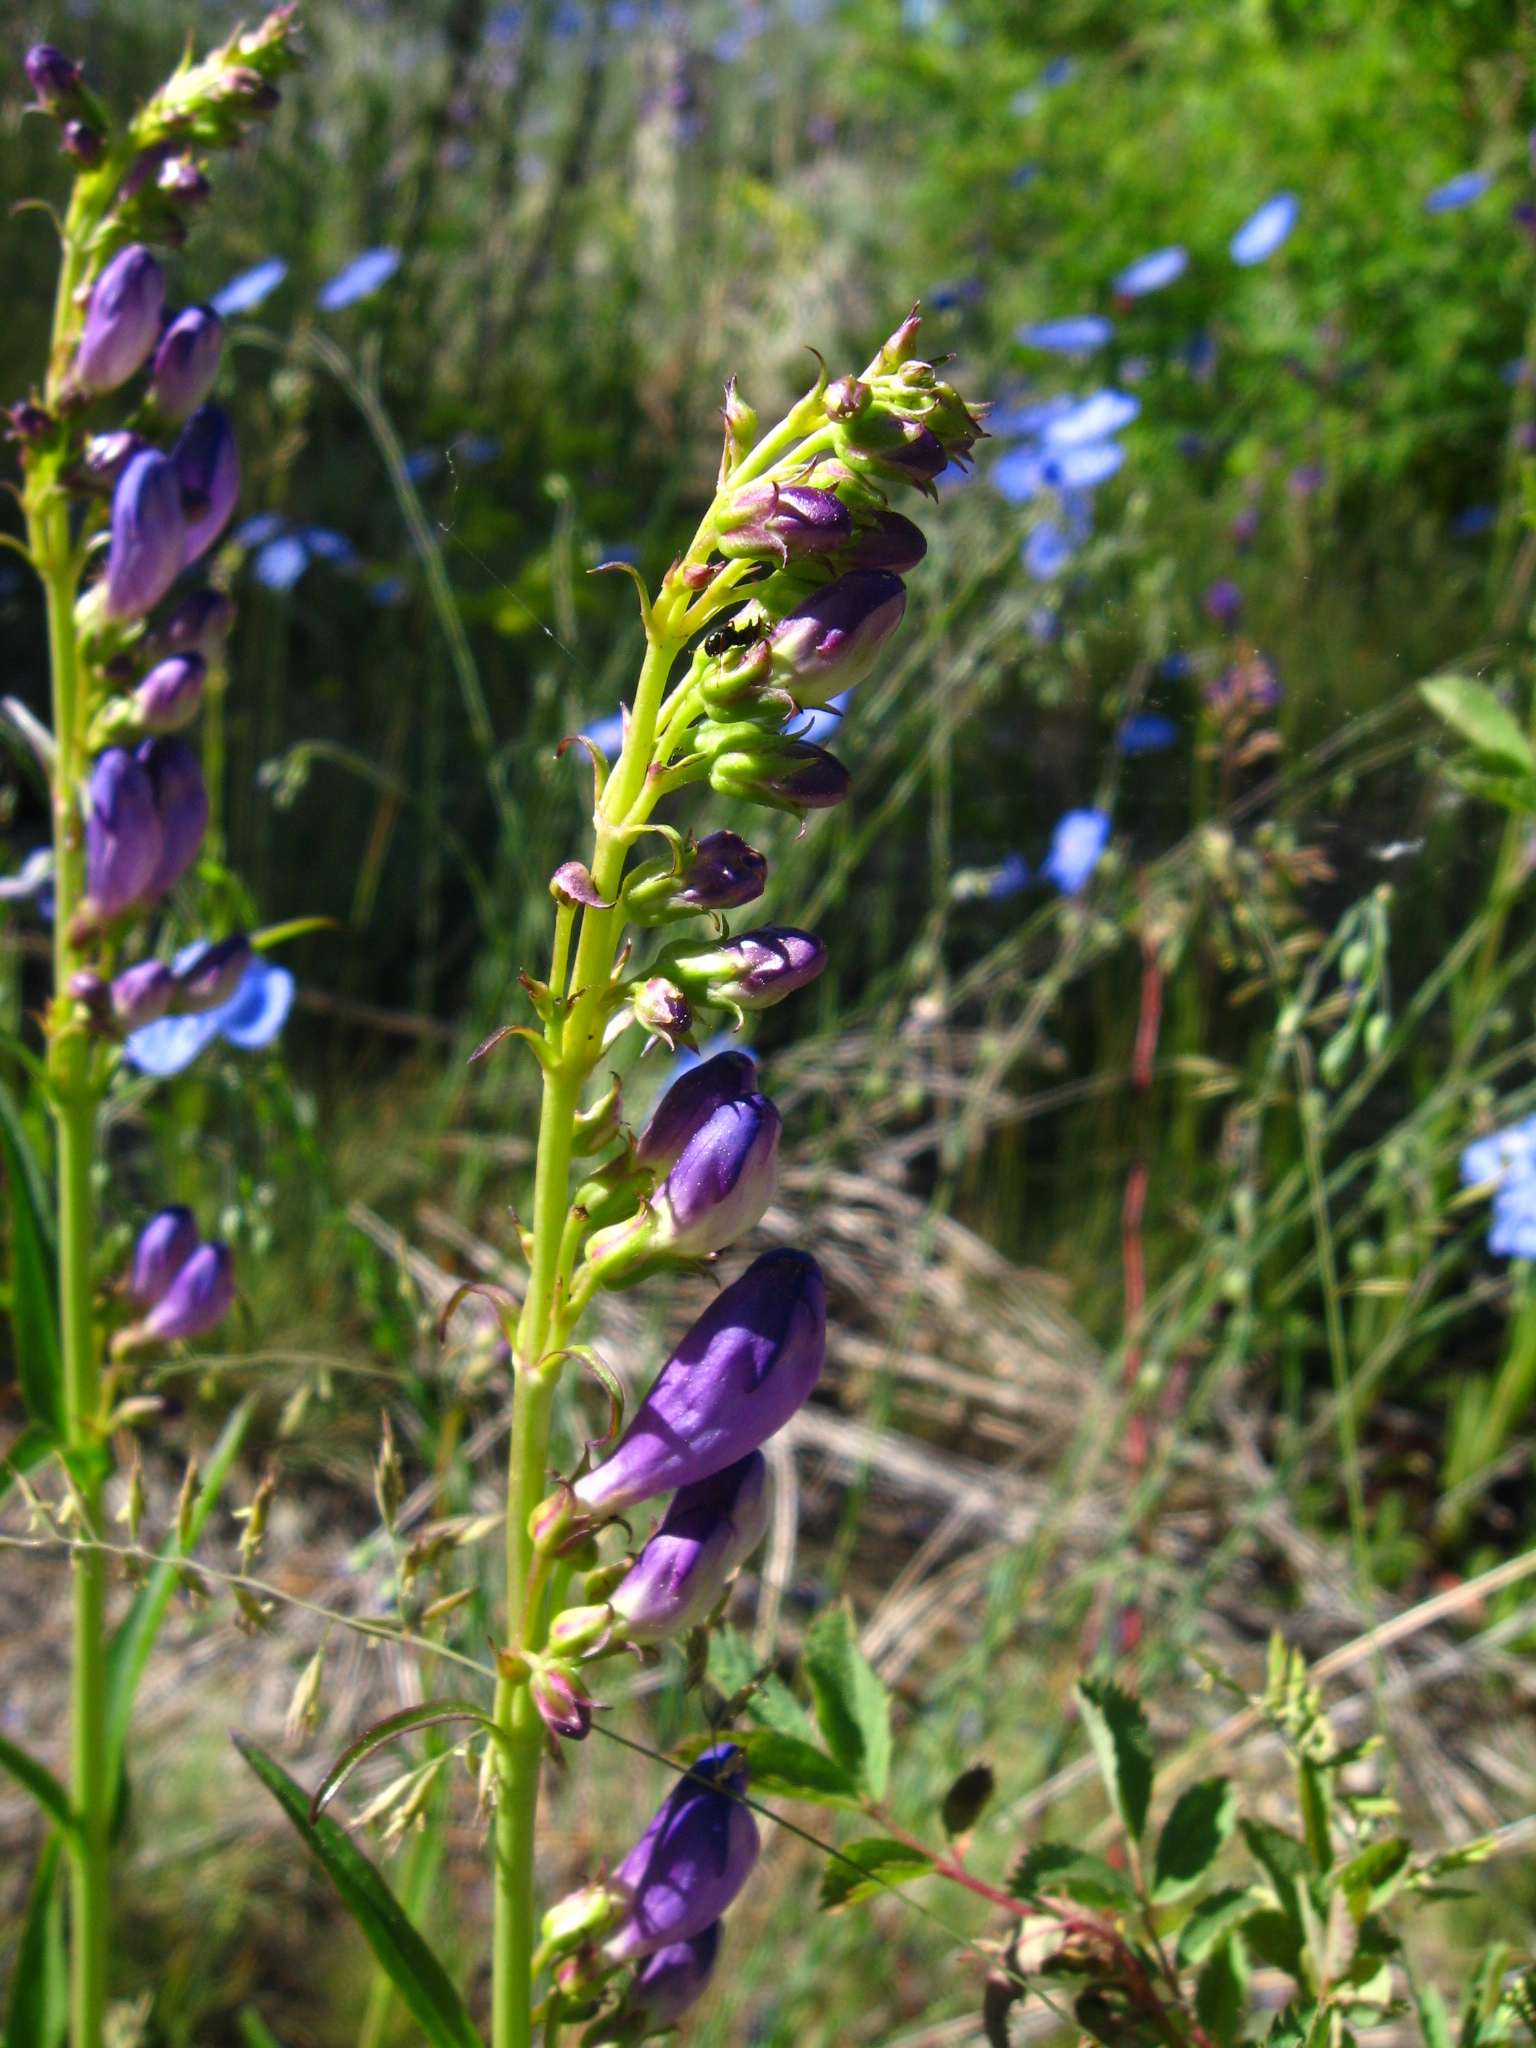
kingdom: Plantae
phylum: Tracheophyta
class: Magnoliopsida
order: Lamiales
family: Plantaginaceae
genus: Penstemon
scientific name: Penstemon strictus
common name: Rocky mountain penstemon
